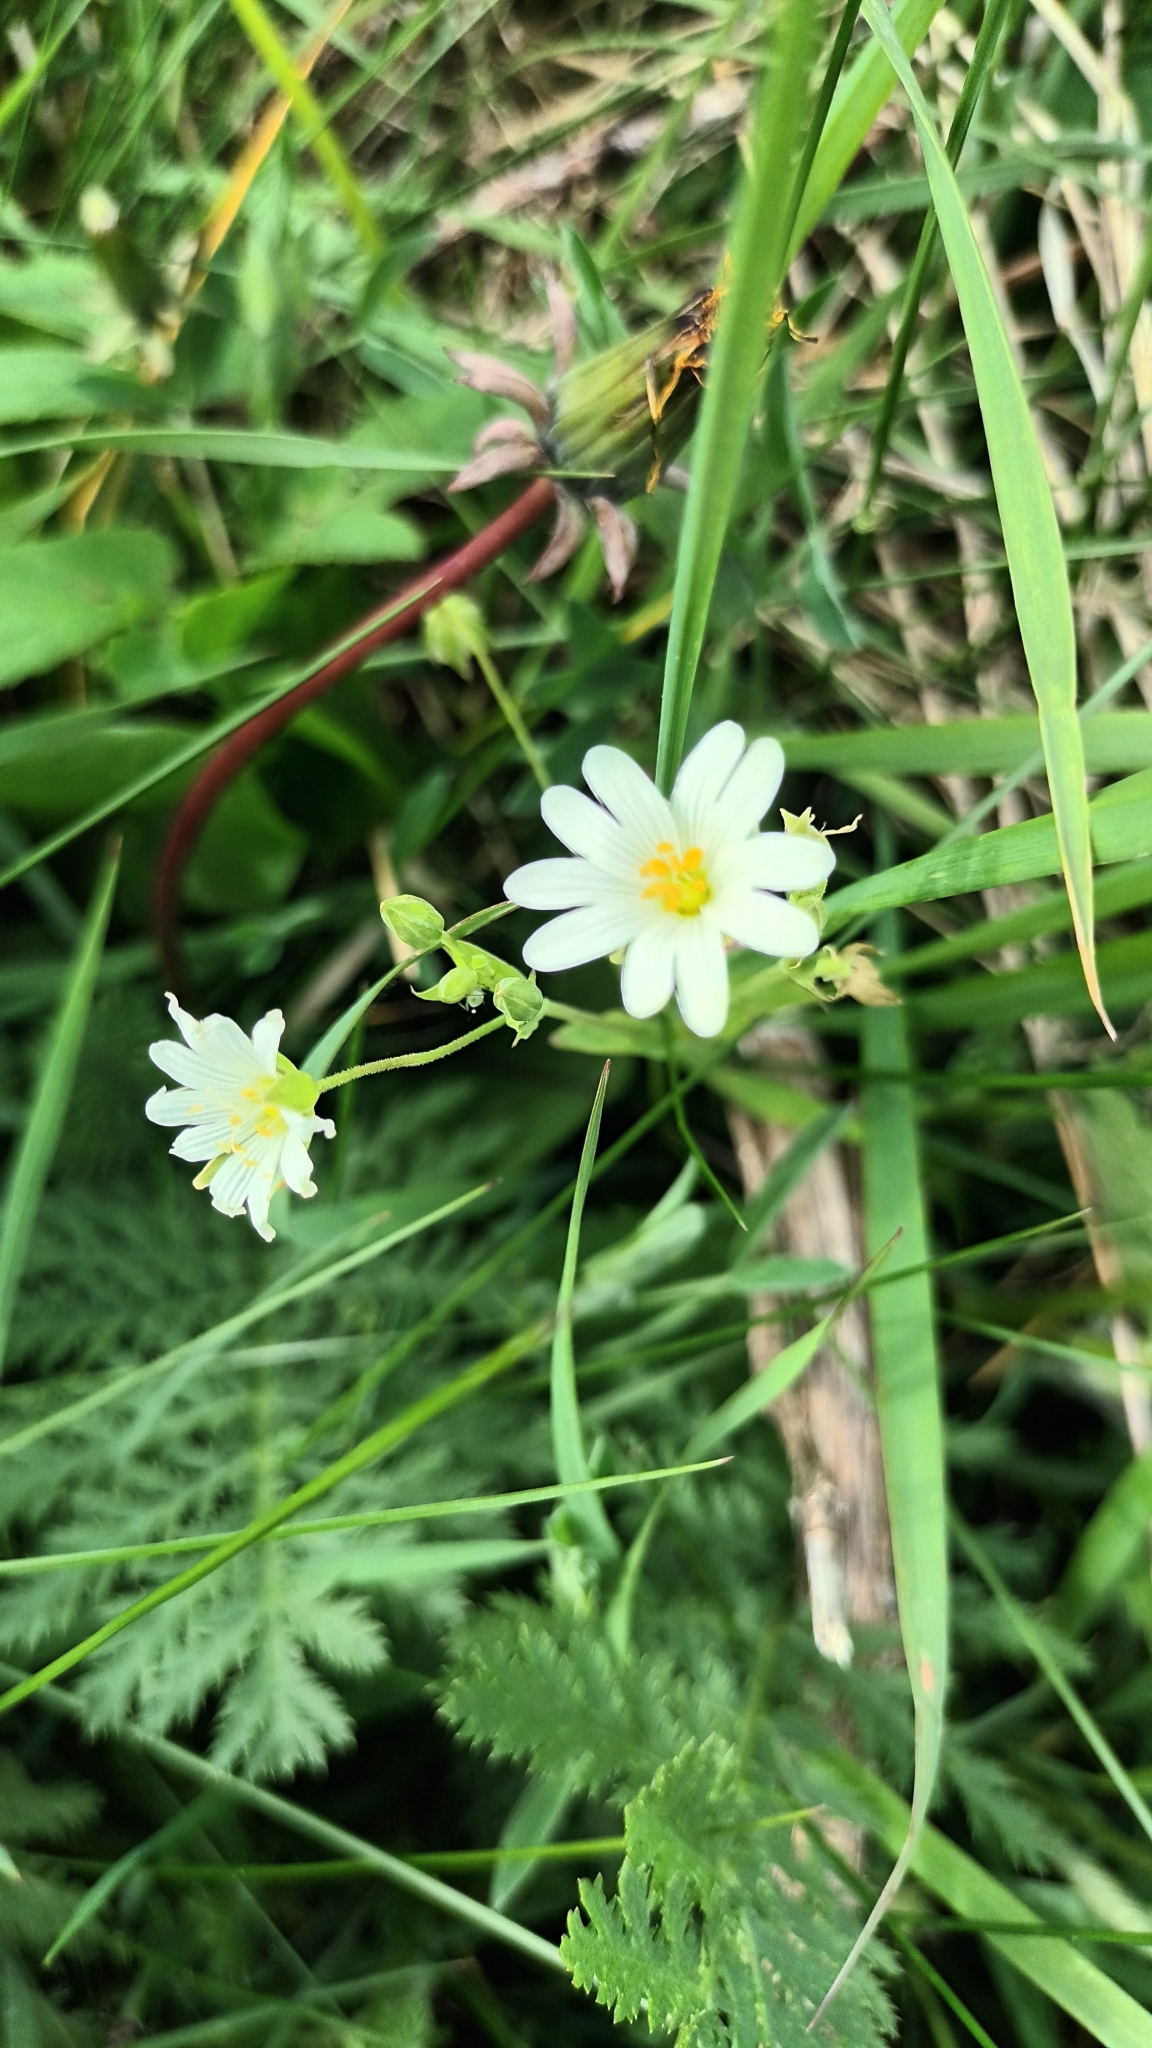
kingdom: Plantae
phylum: Tracheophyta
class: Magnoliopsida
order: Caryophyllales
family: Caryophyllaceae
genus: Rabelera
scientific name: Rabelera holostea
